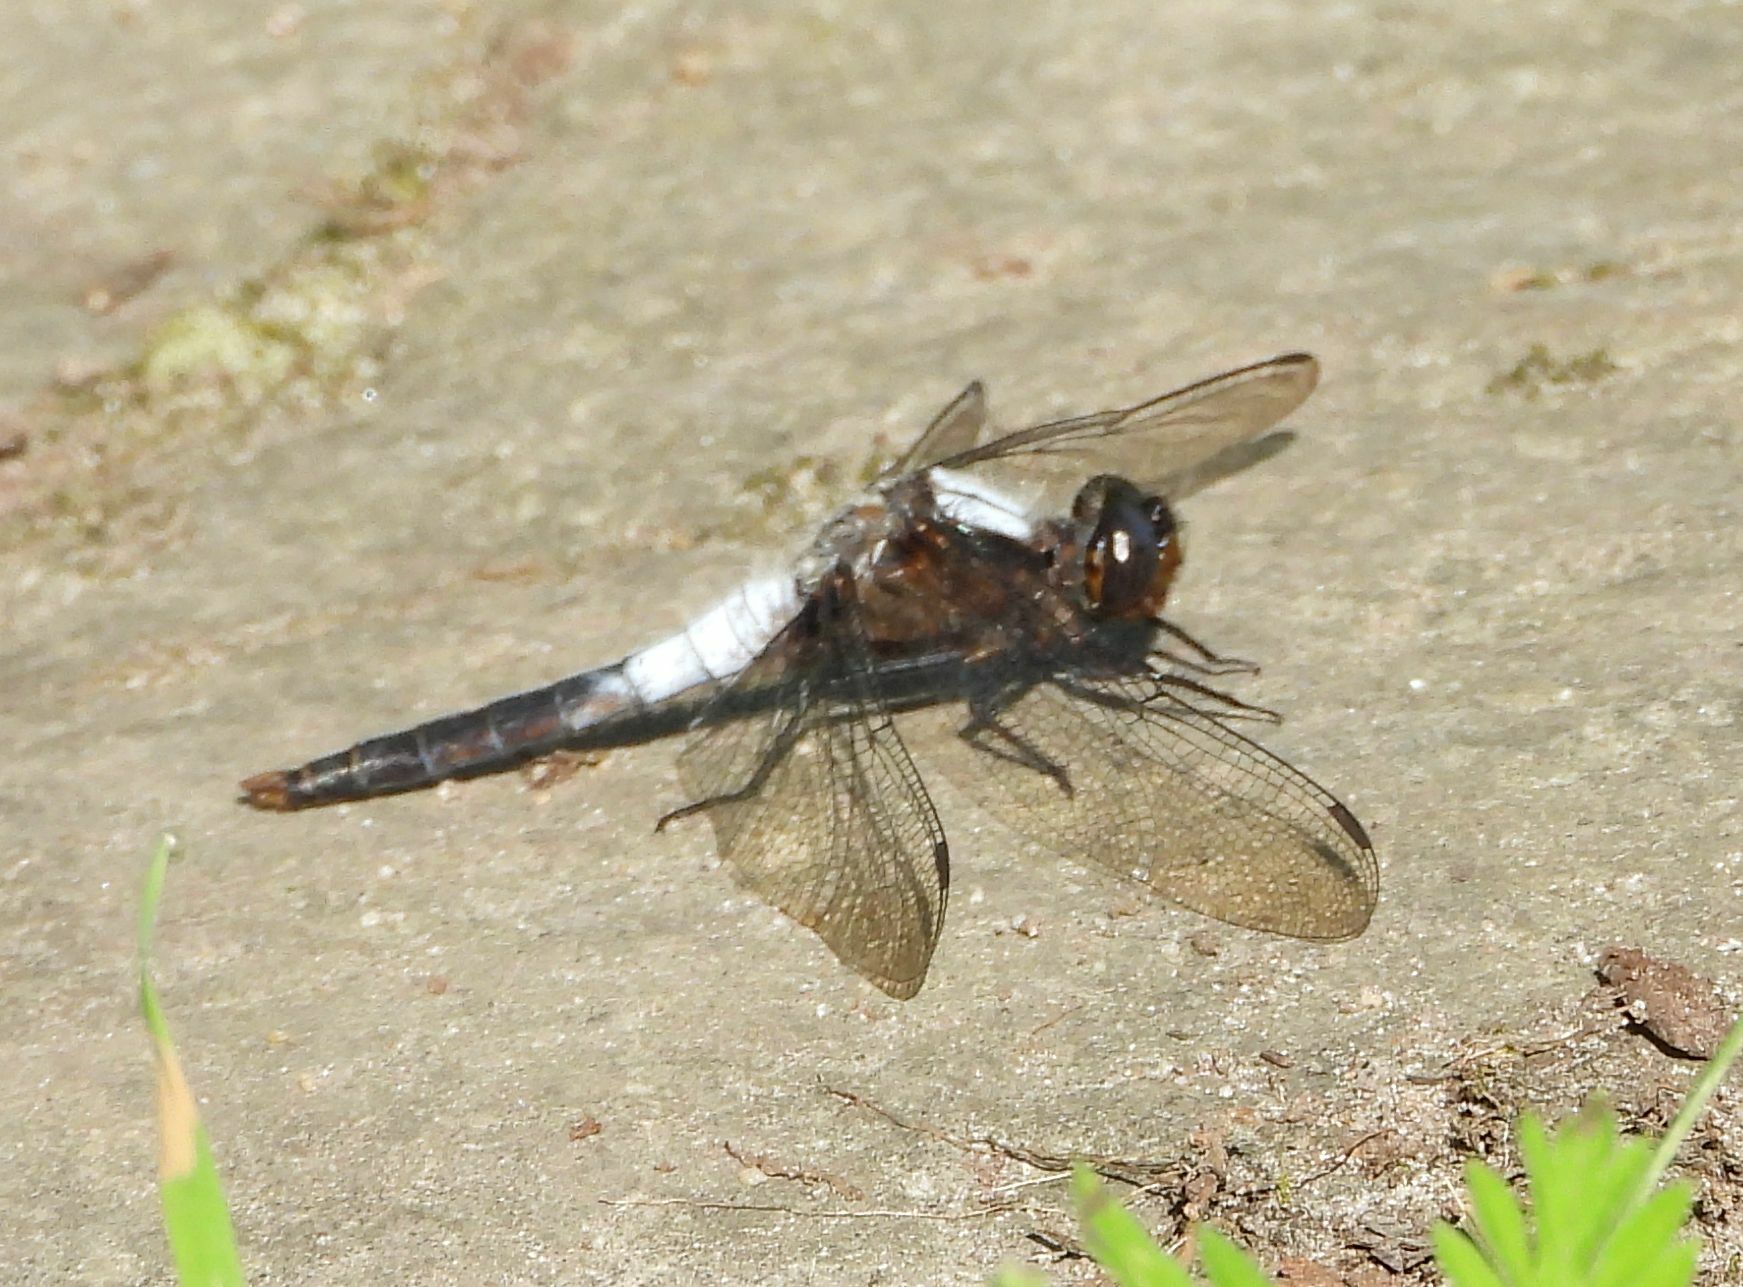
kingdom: Animalia
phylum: Arthropoda
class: Insecta
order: Odonata
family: Libellulidae
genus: Ladona
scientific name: Ladona julia
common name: Chalk-fronted corporal
